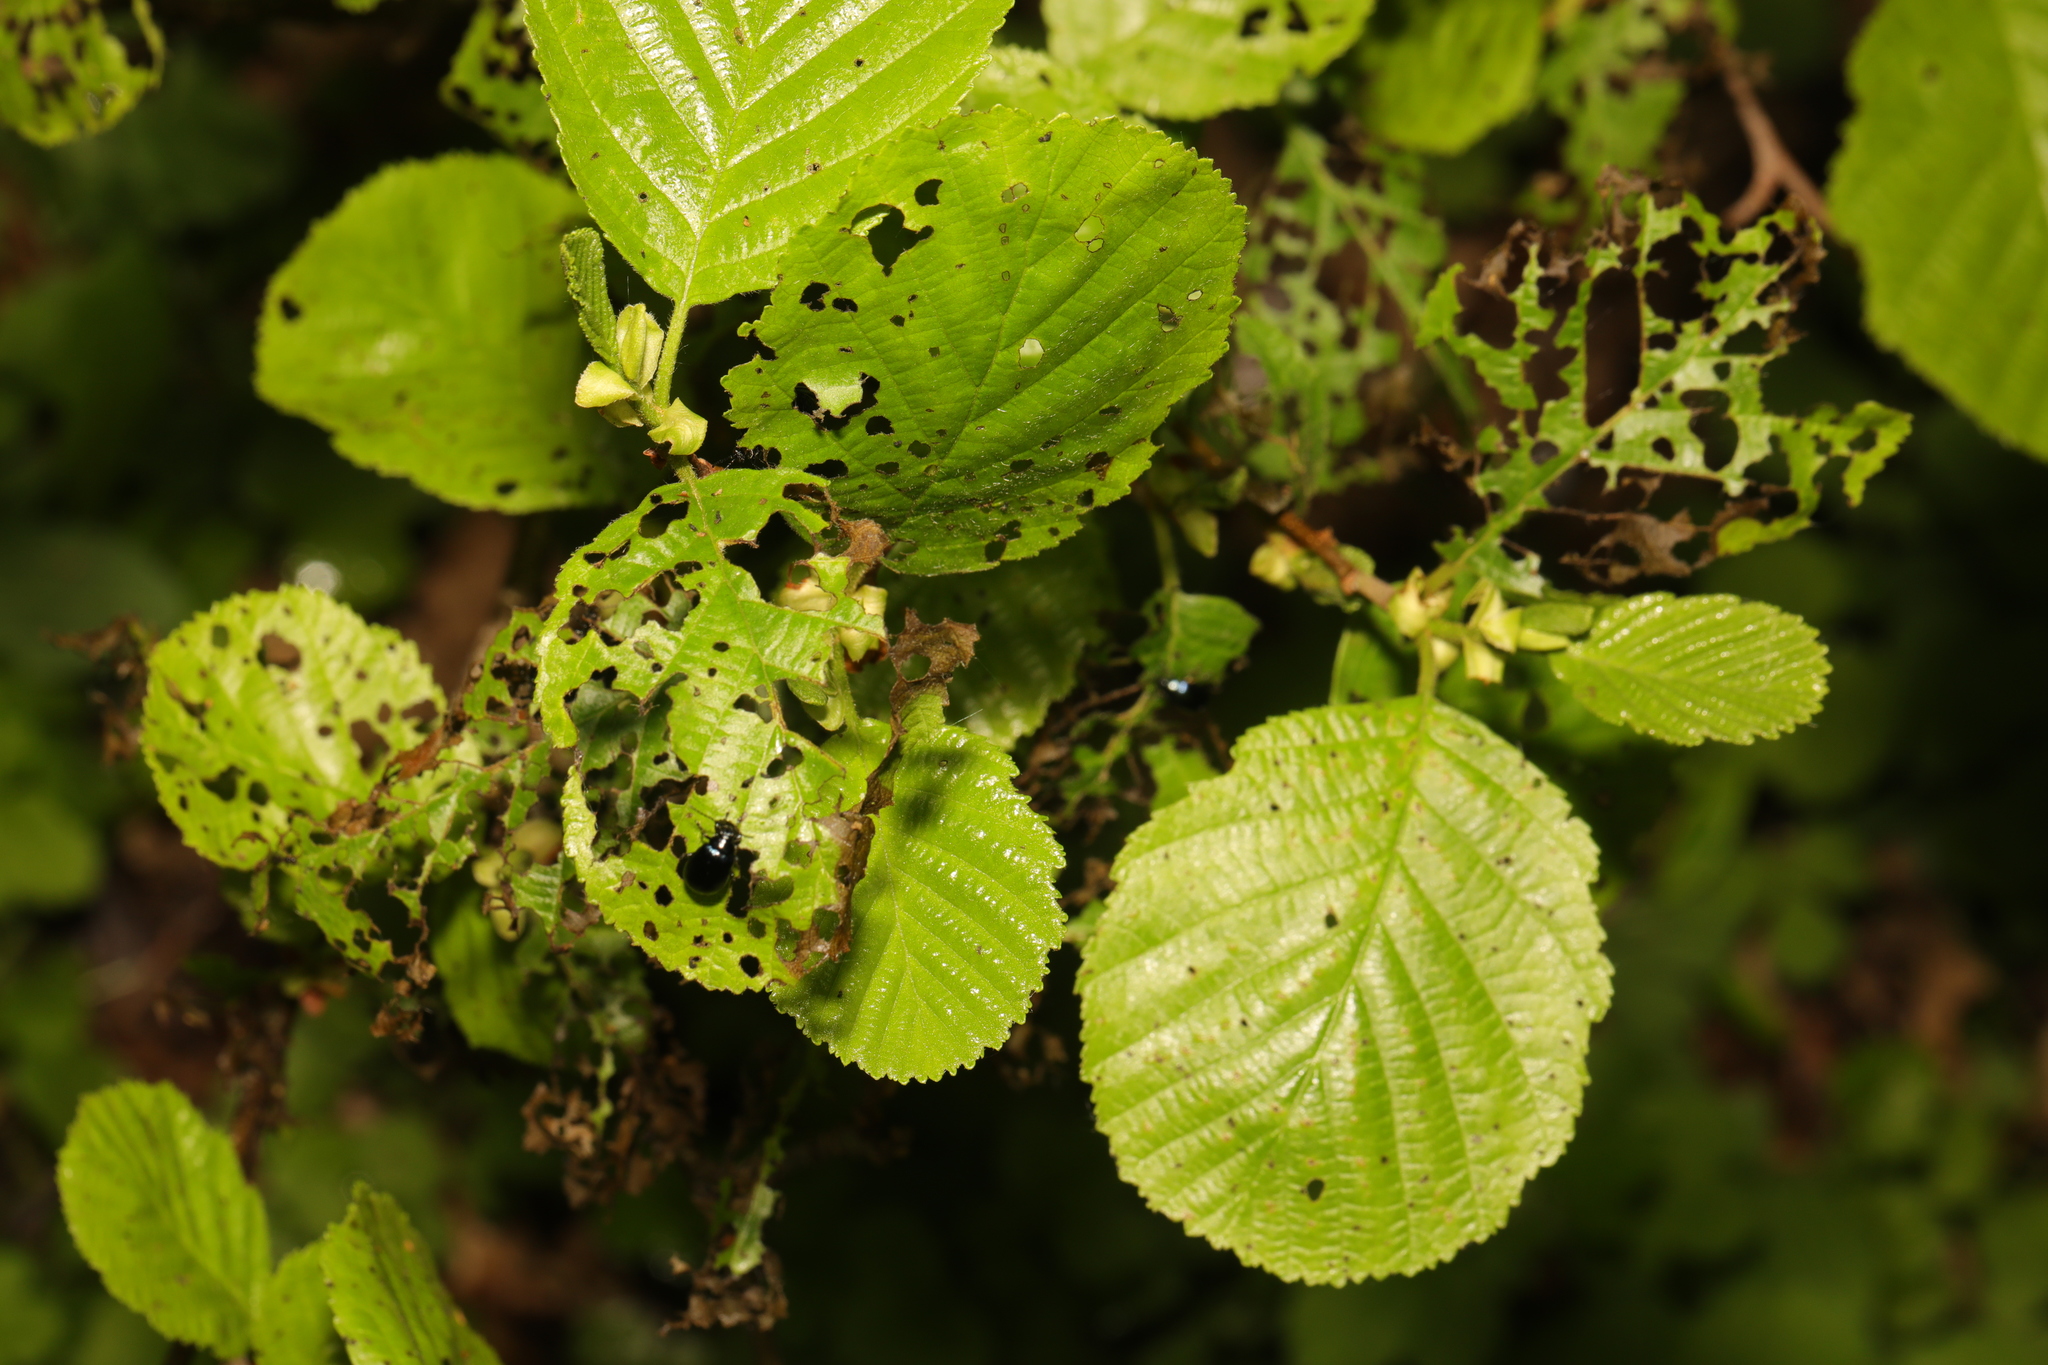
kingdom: Plantae
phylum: Tracheophyta
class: Magnoliopsida
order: Fagales
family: Betulaceae
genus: Alnus
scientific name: Alnus glutinosa
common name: Black alder
